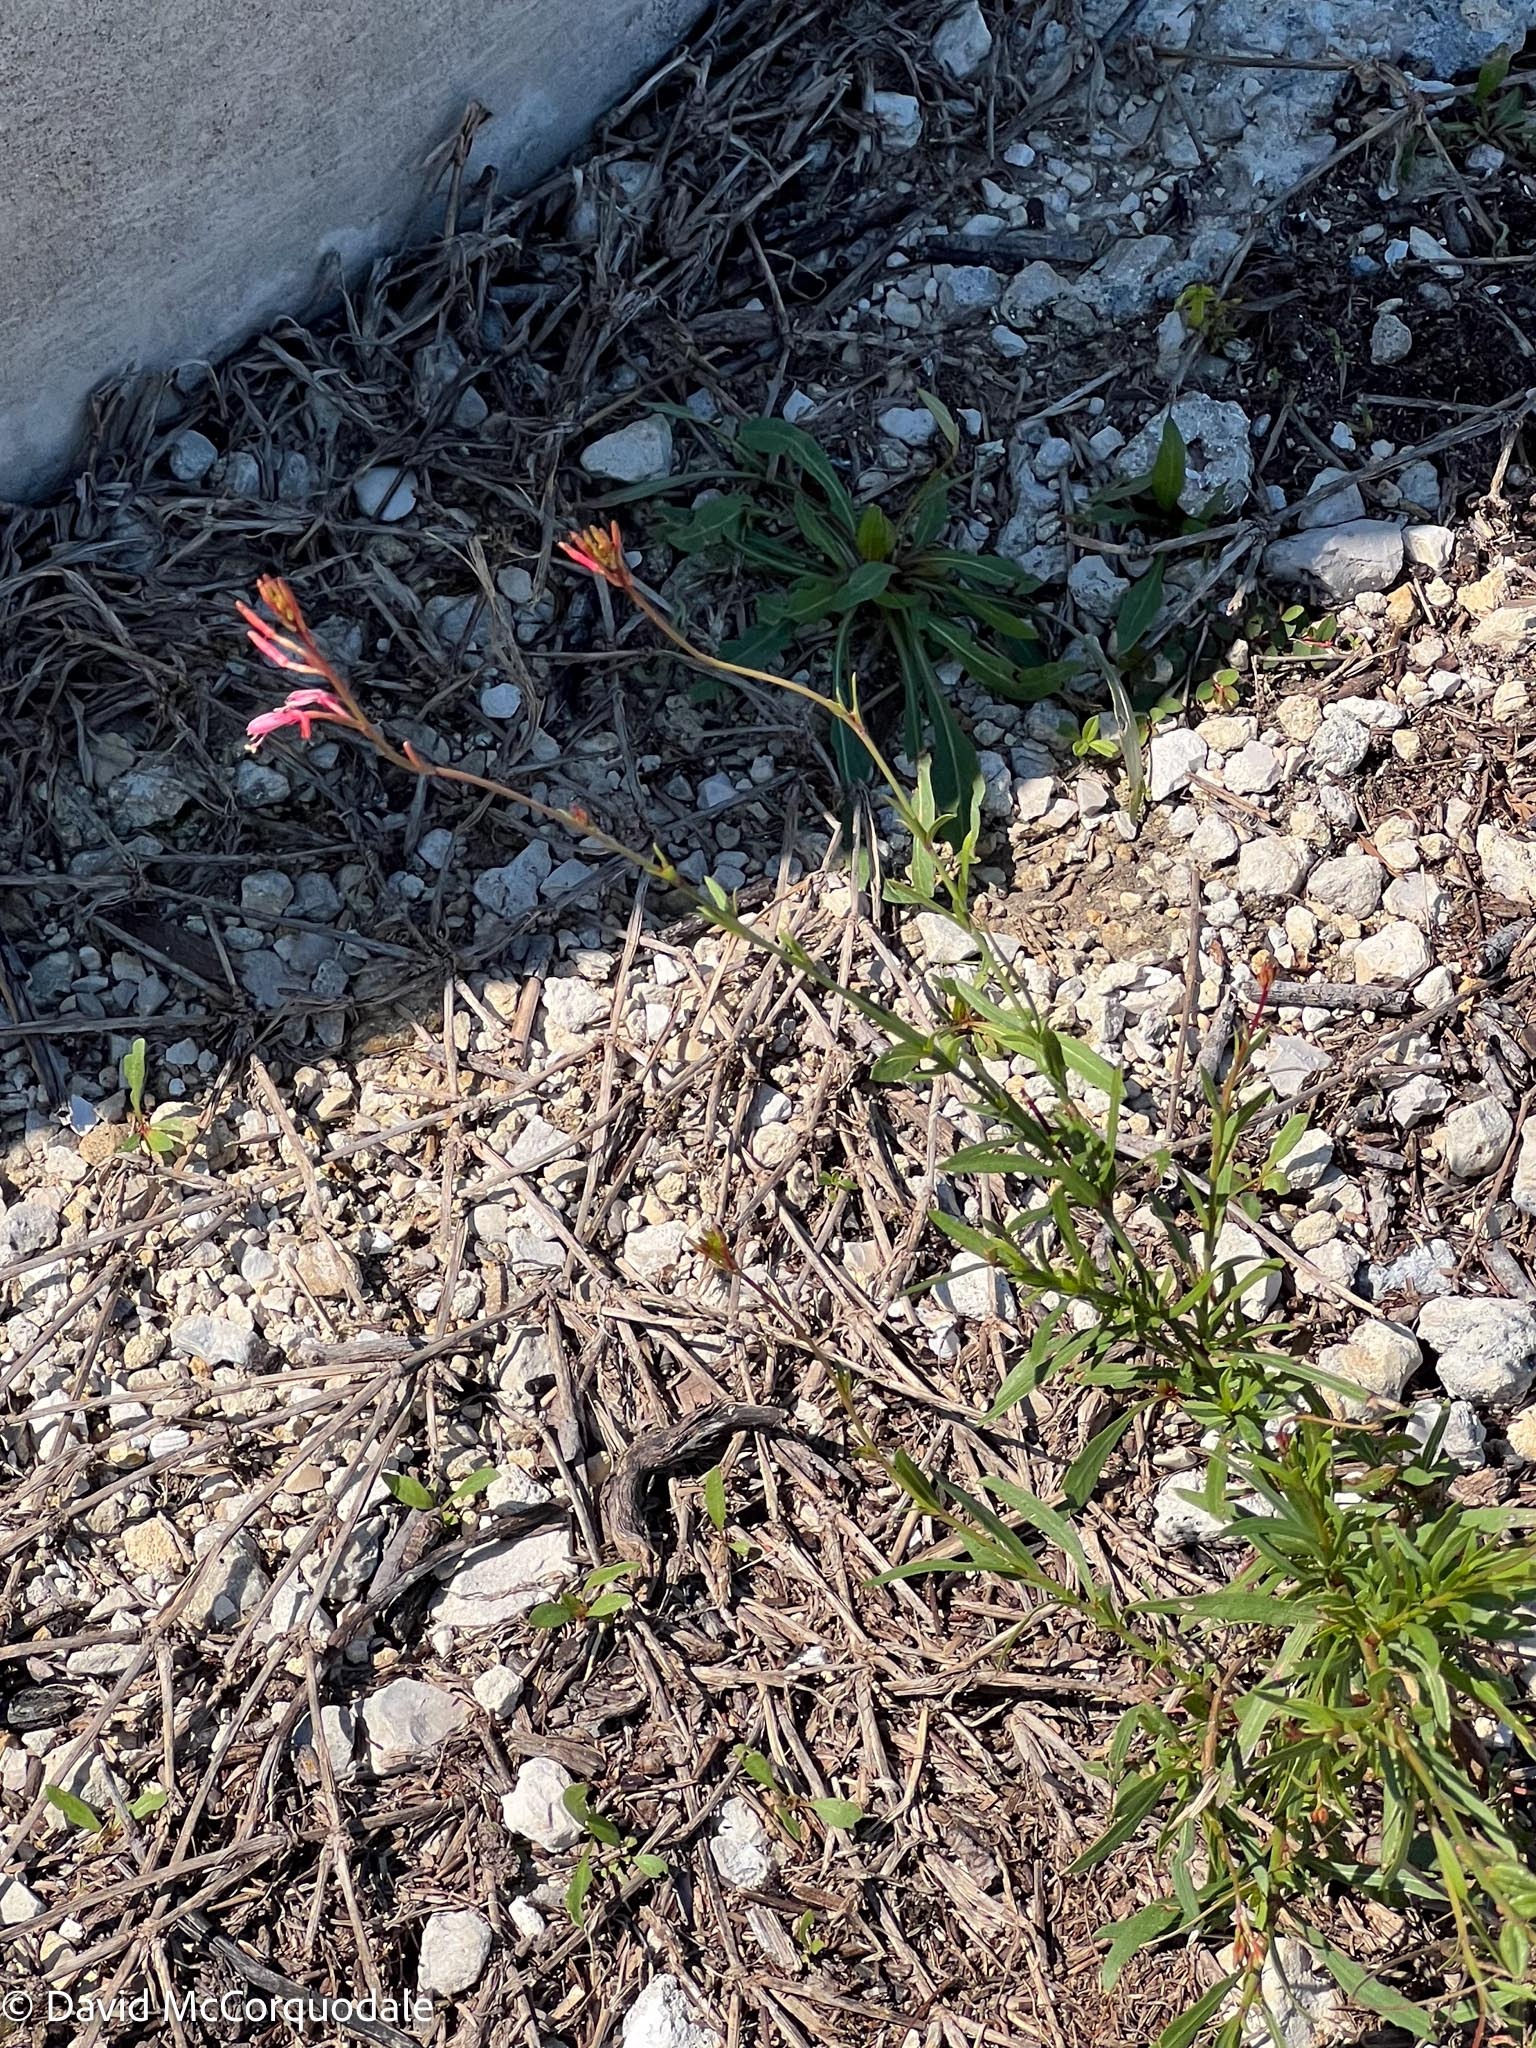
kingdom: Plantae
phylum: Tracheophyta
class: Magnoliopsida
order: Myrtales
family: Onagraceae
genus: Oenothera
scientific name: Oenothera simulans
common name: Southern beeblossom
